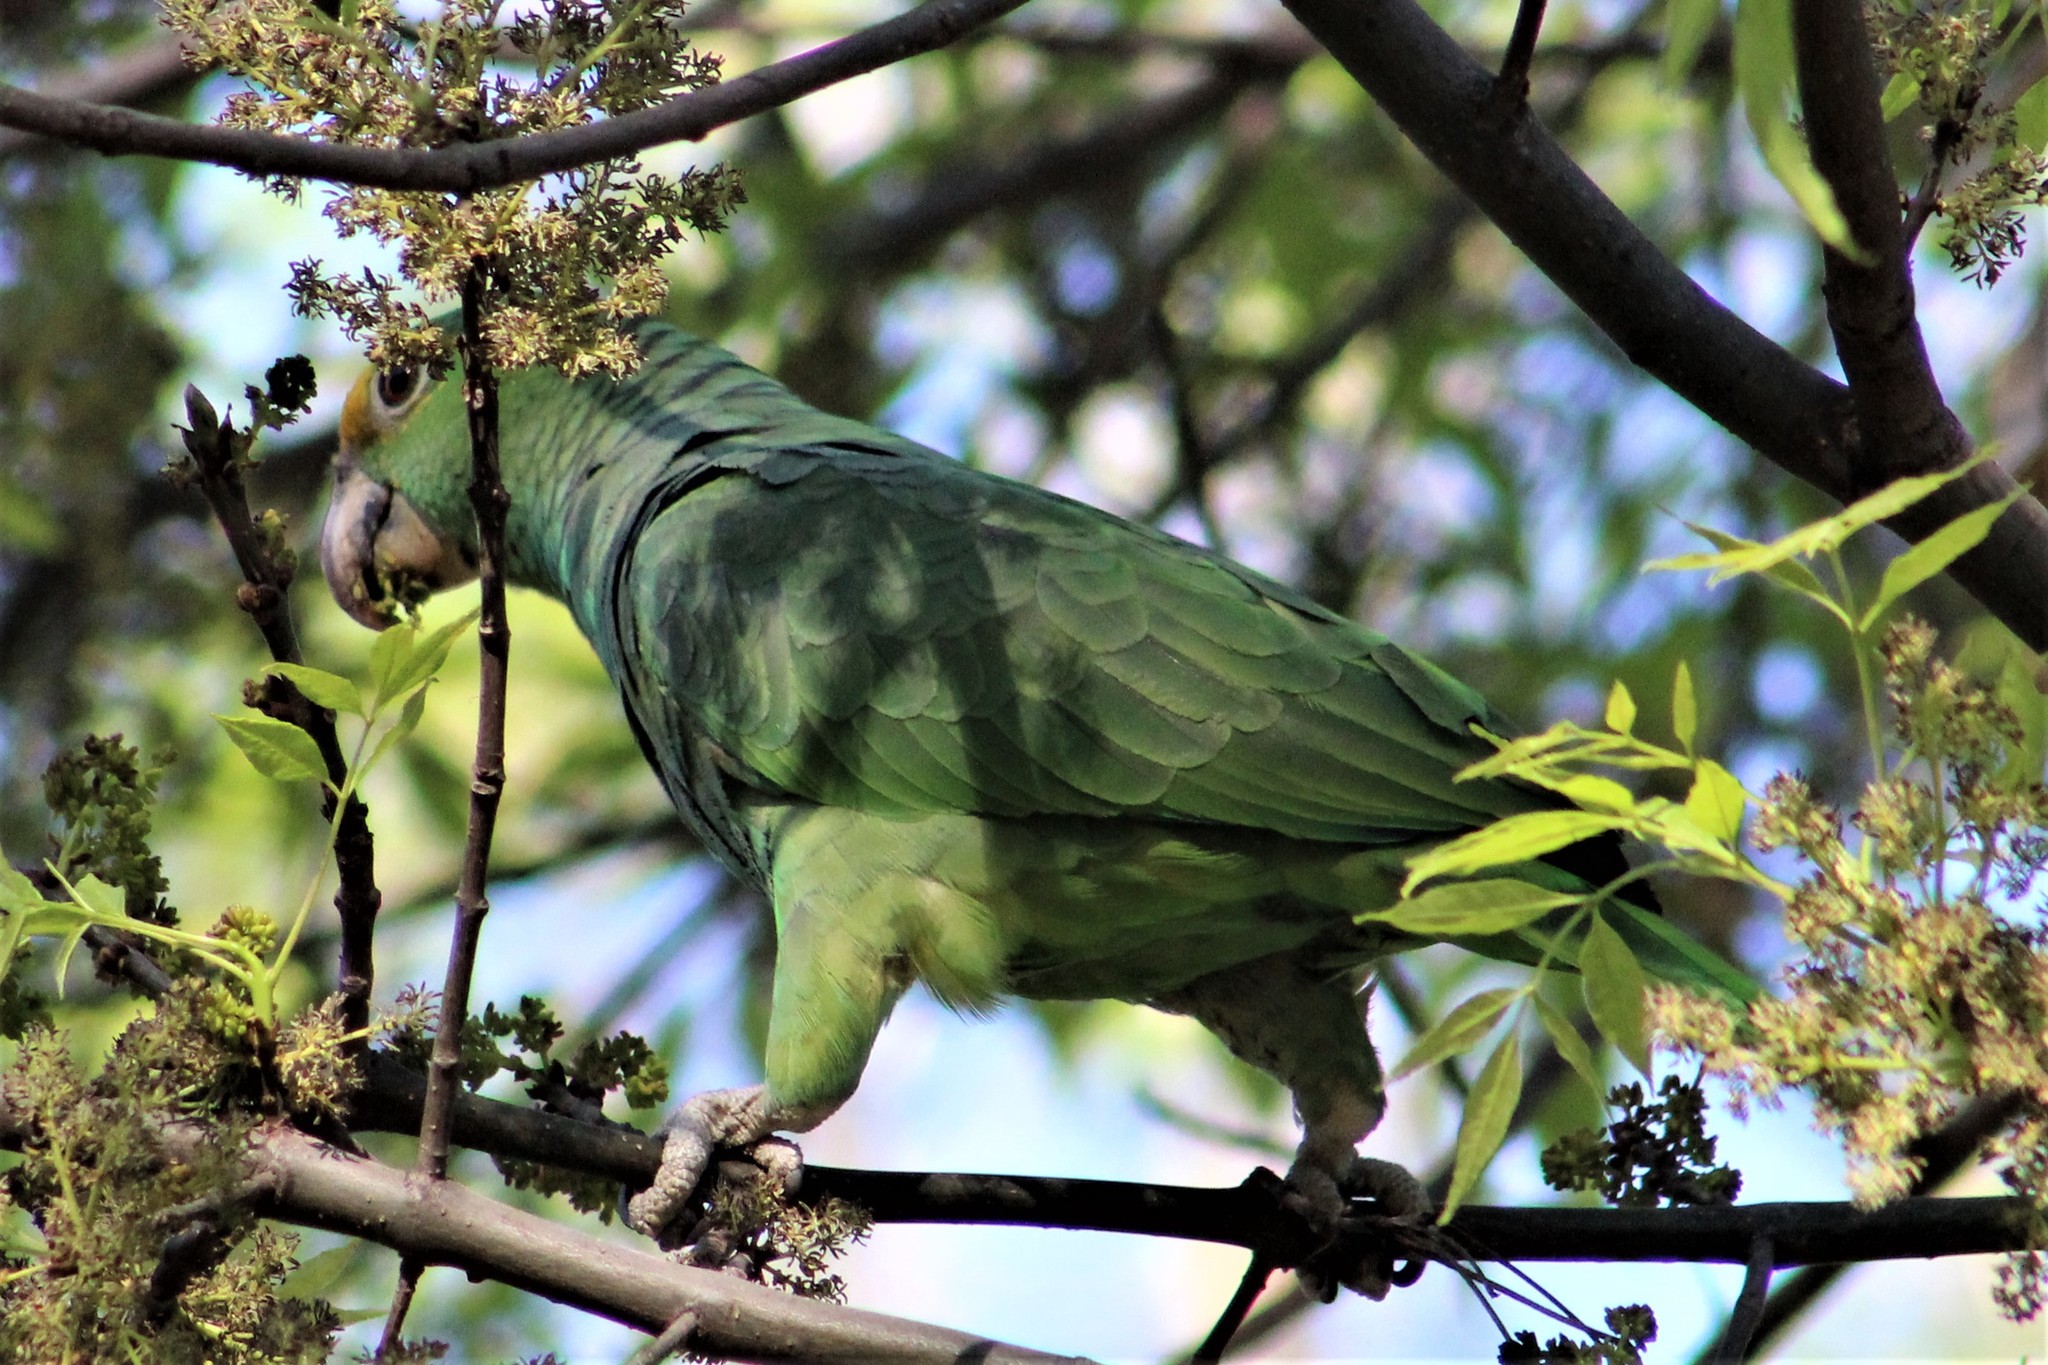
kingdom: Animalia
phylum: Chordata
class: Aves
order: Psittaciformes
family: Psittacidae
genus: Amazona
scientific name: Amazona
